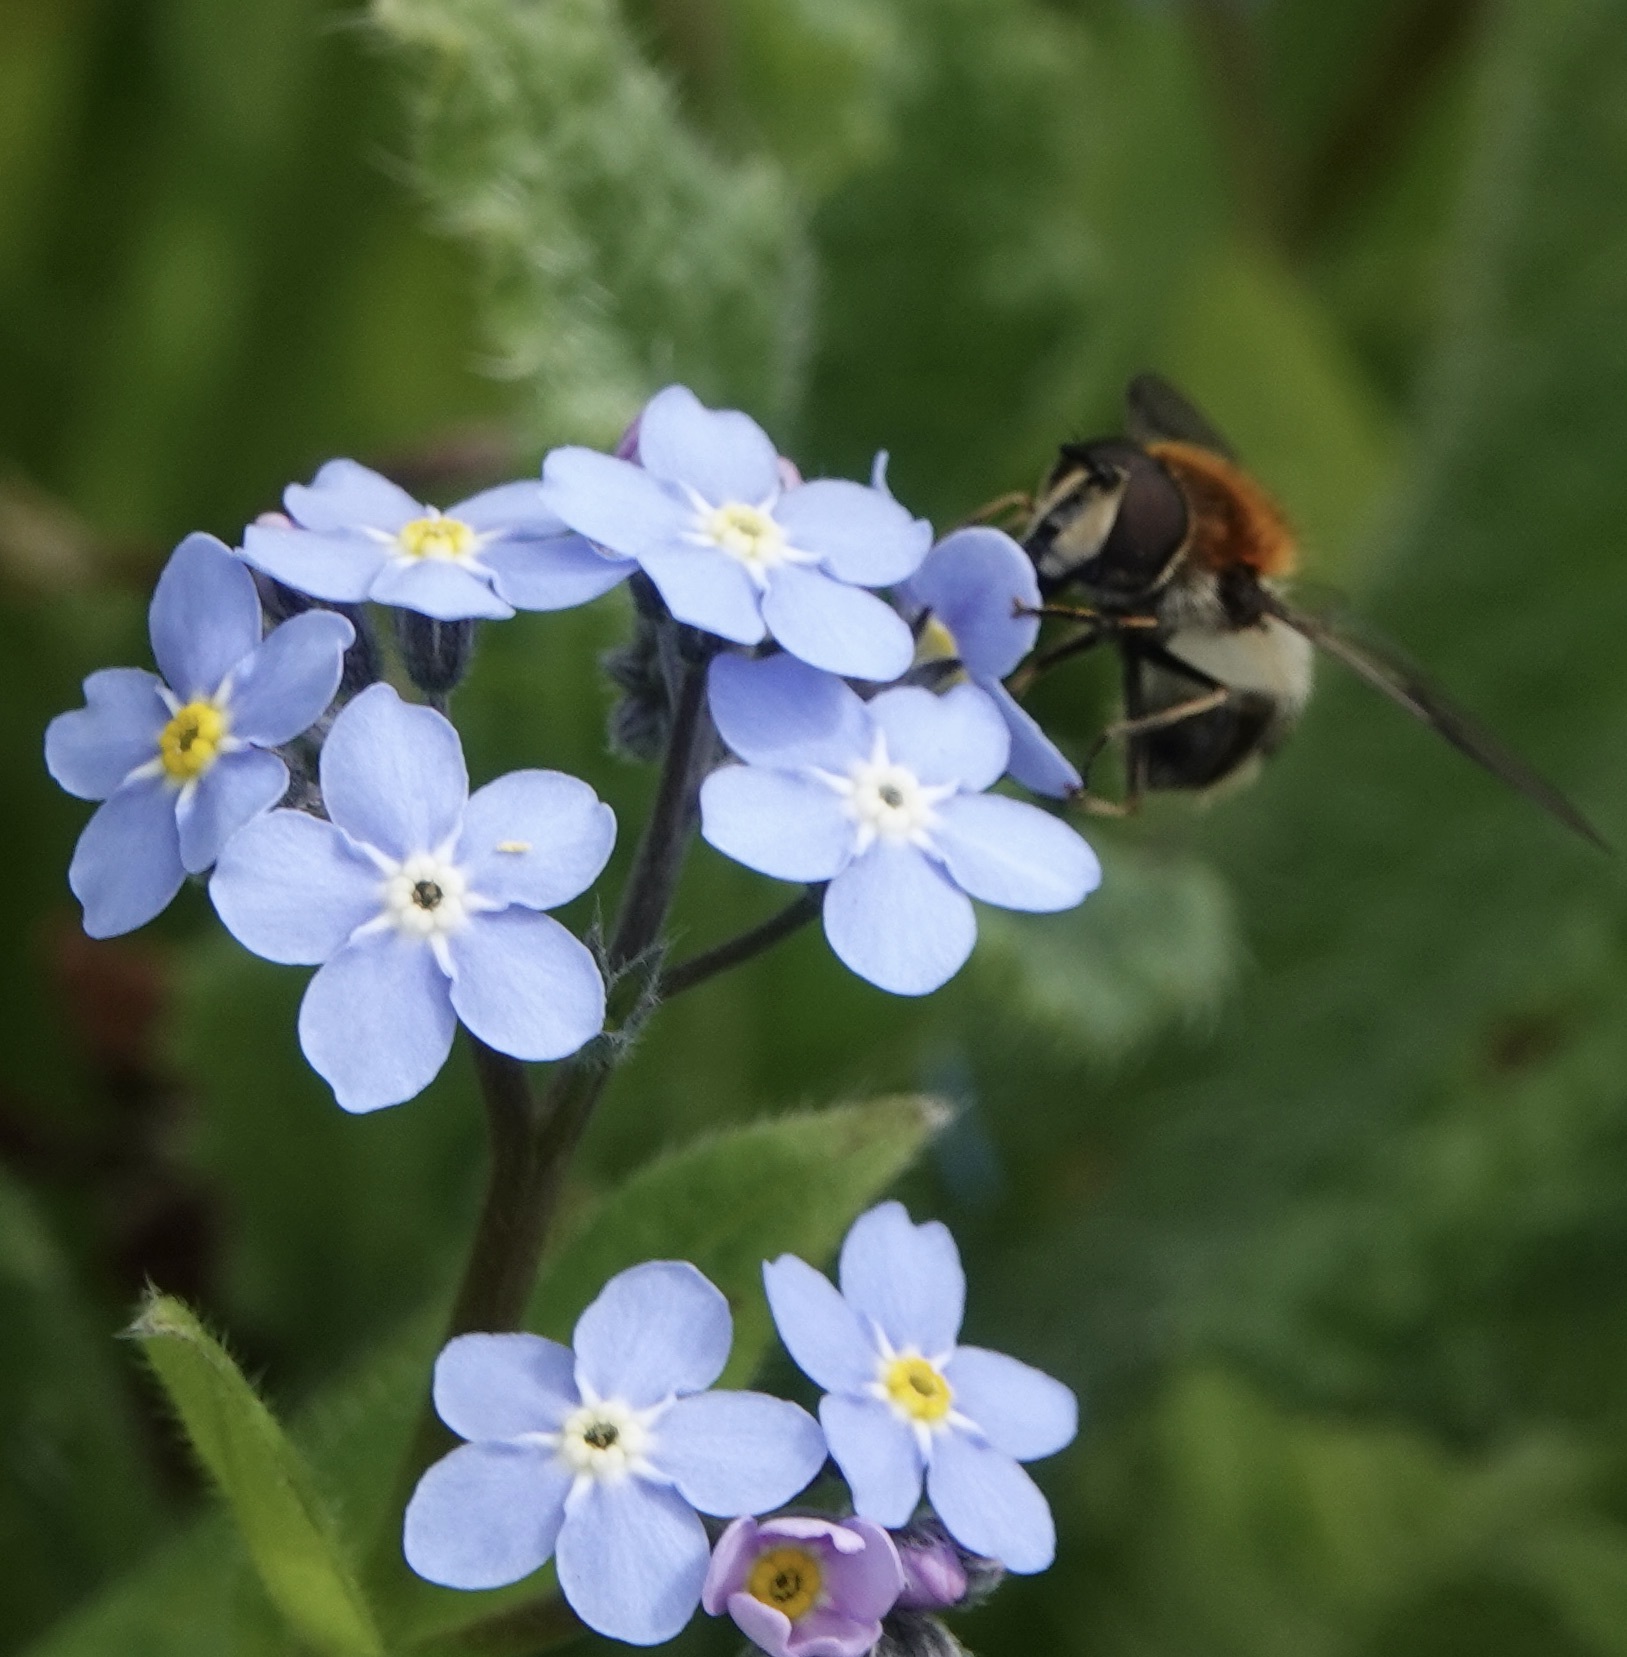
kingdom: Animalia
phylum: Arthropoda
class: Insecta
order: Diptera
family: Syrphidae
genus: Leucozona
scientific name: Leucozona lucorum
